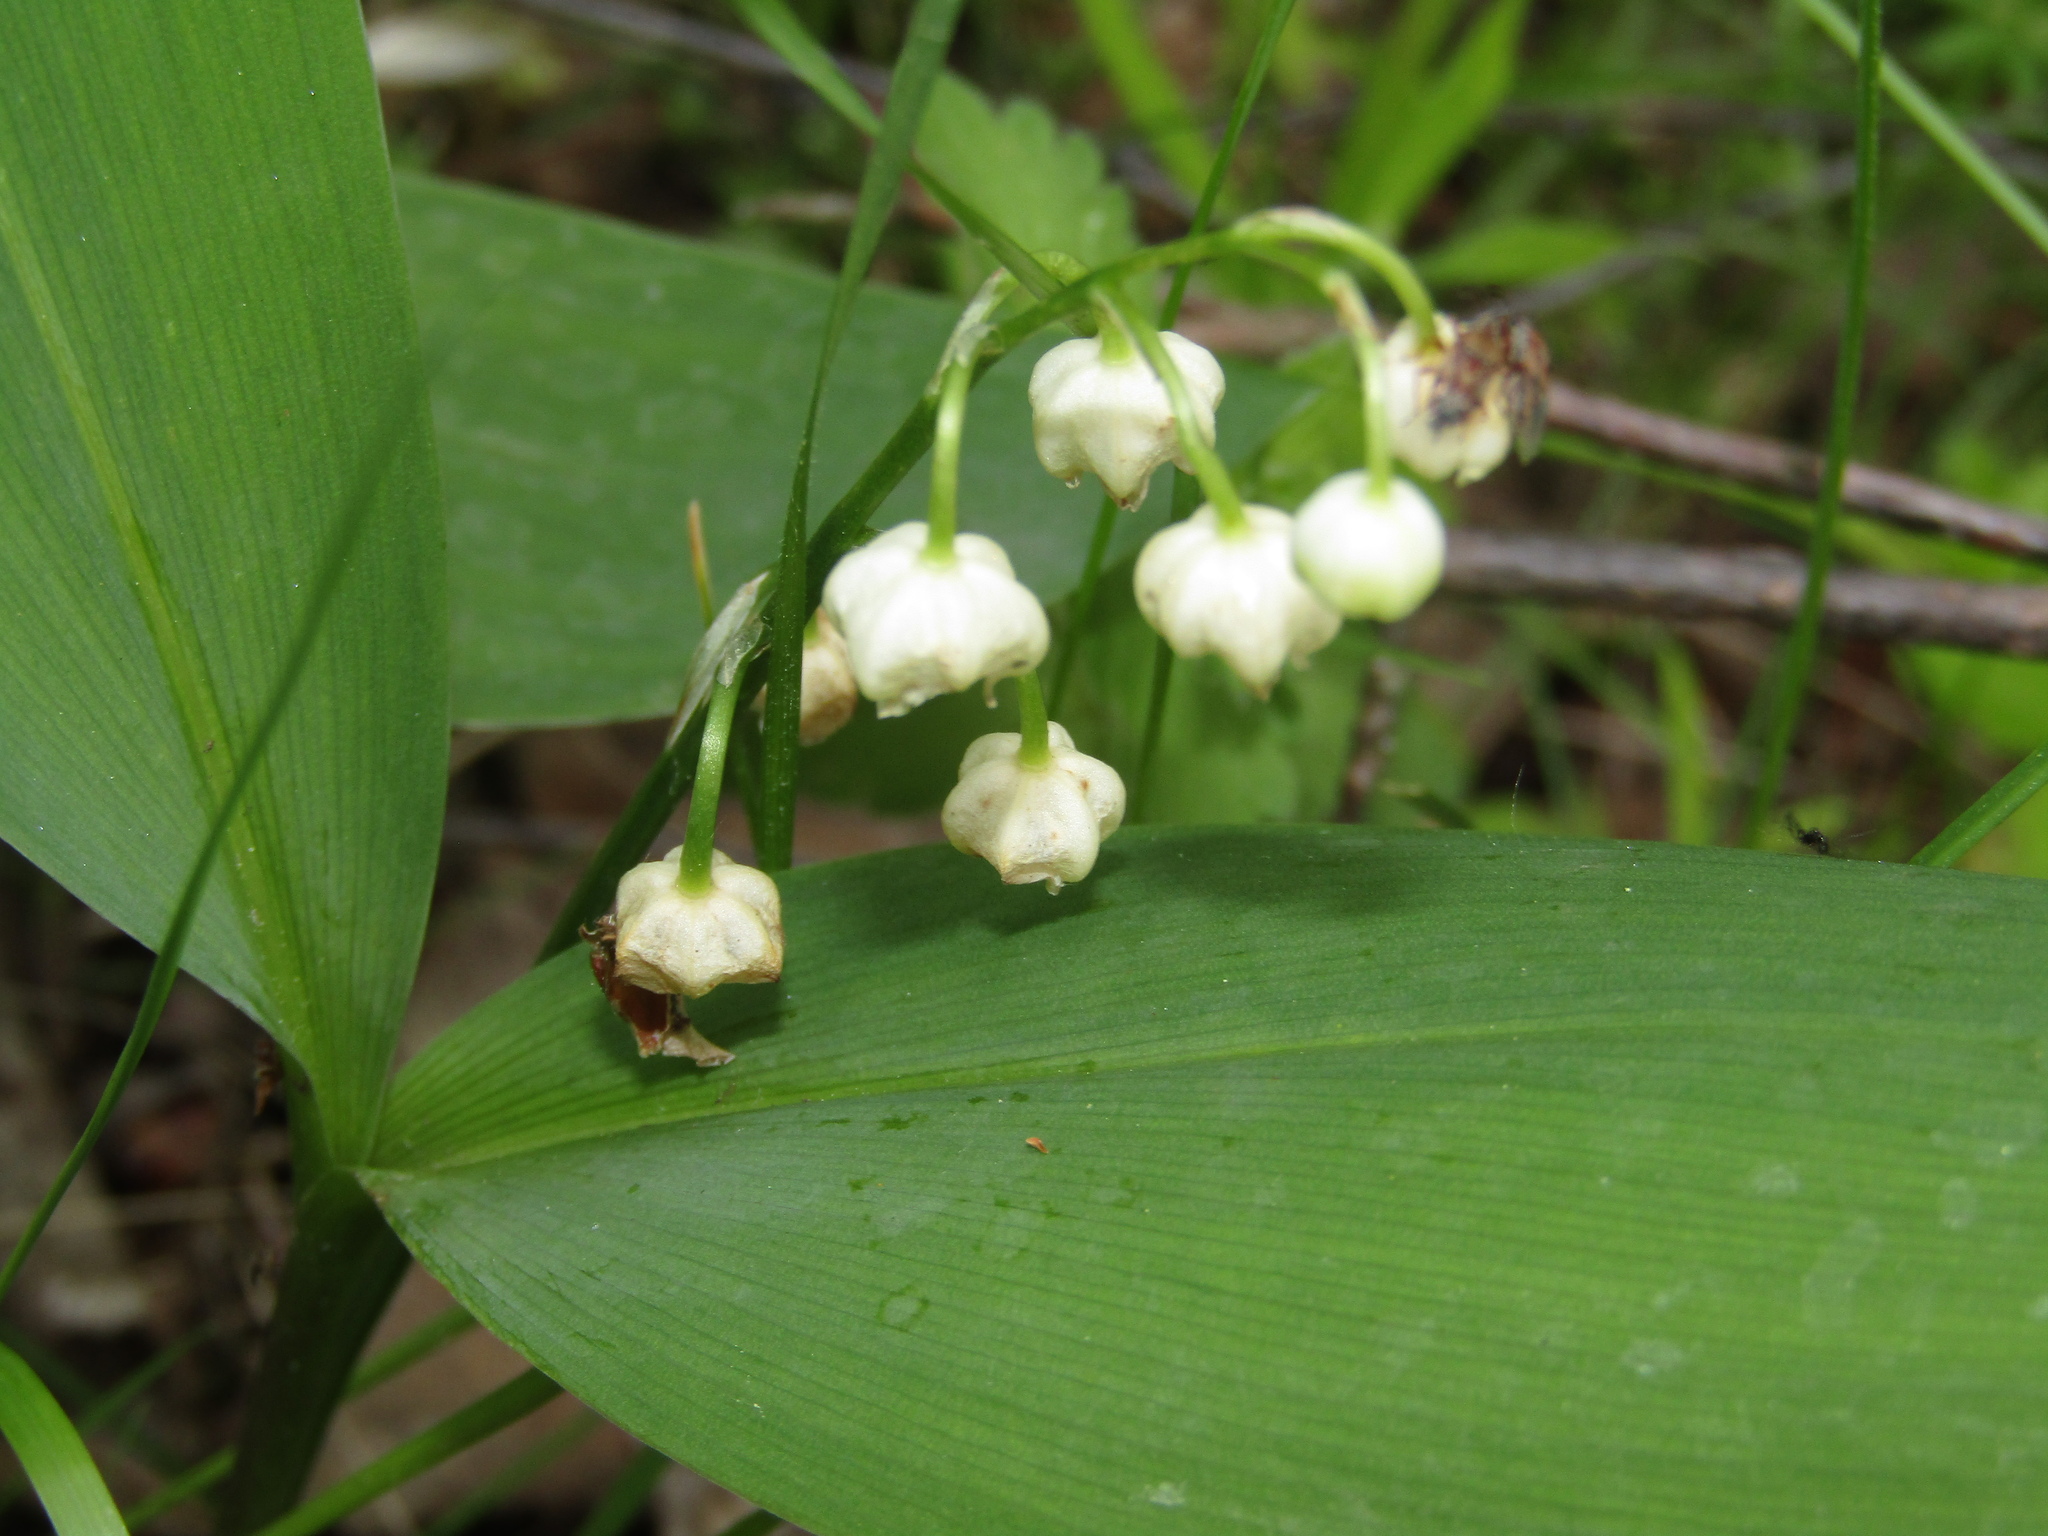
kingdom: Plantae
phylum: Tracheophyta
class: Liliopsida
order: Asparagales
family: Asparagaceae
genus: Convallaria
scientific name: Convallaria majalis
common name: Lily-of-the-valley
